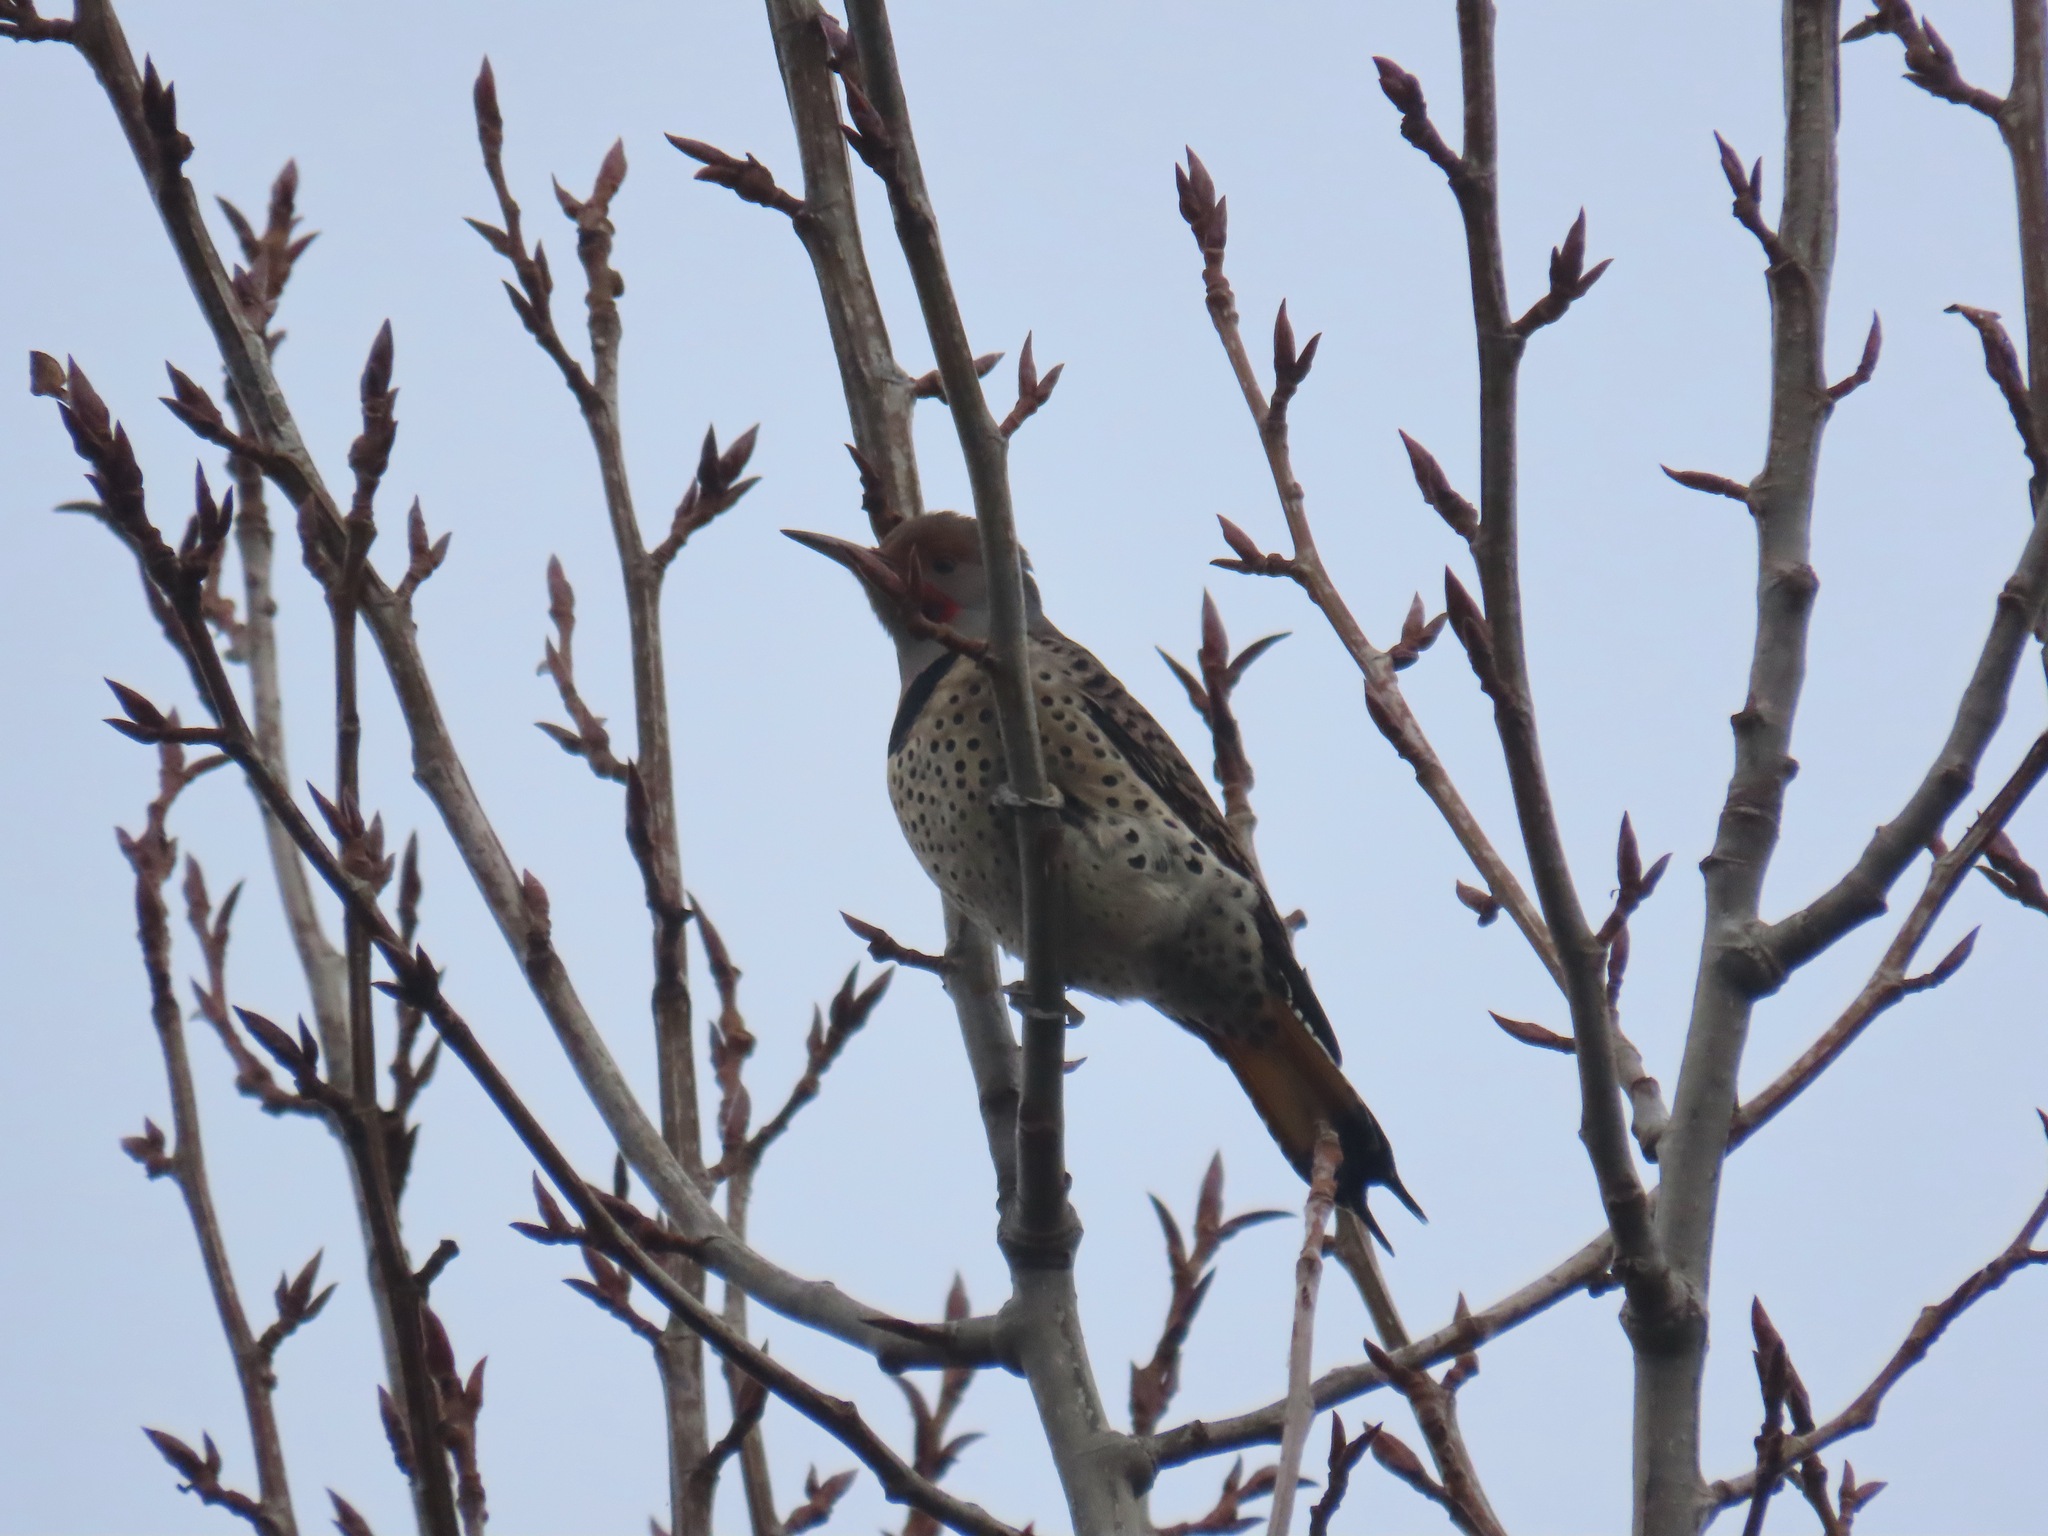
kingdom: Animalia
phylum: Chordata
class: Aves
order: Piciformes
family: Picidae
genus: Colaptes
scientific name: Colaptes auratus
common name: Northern flicker
